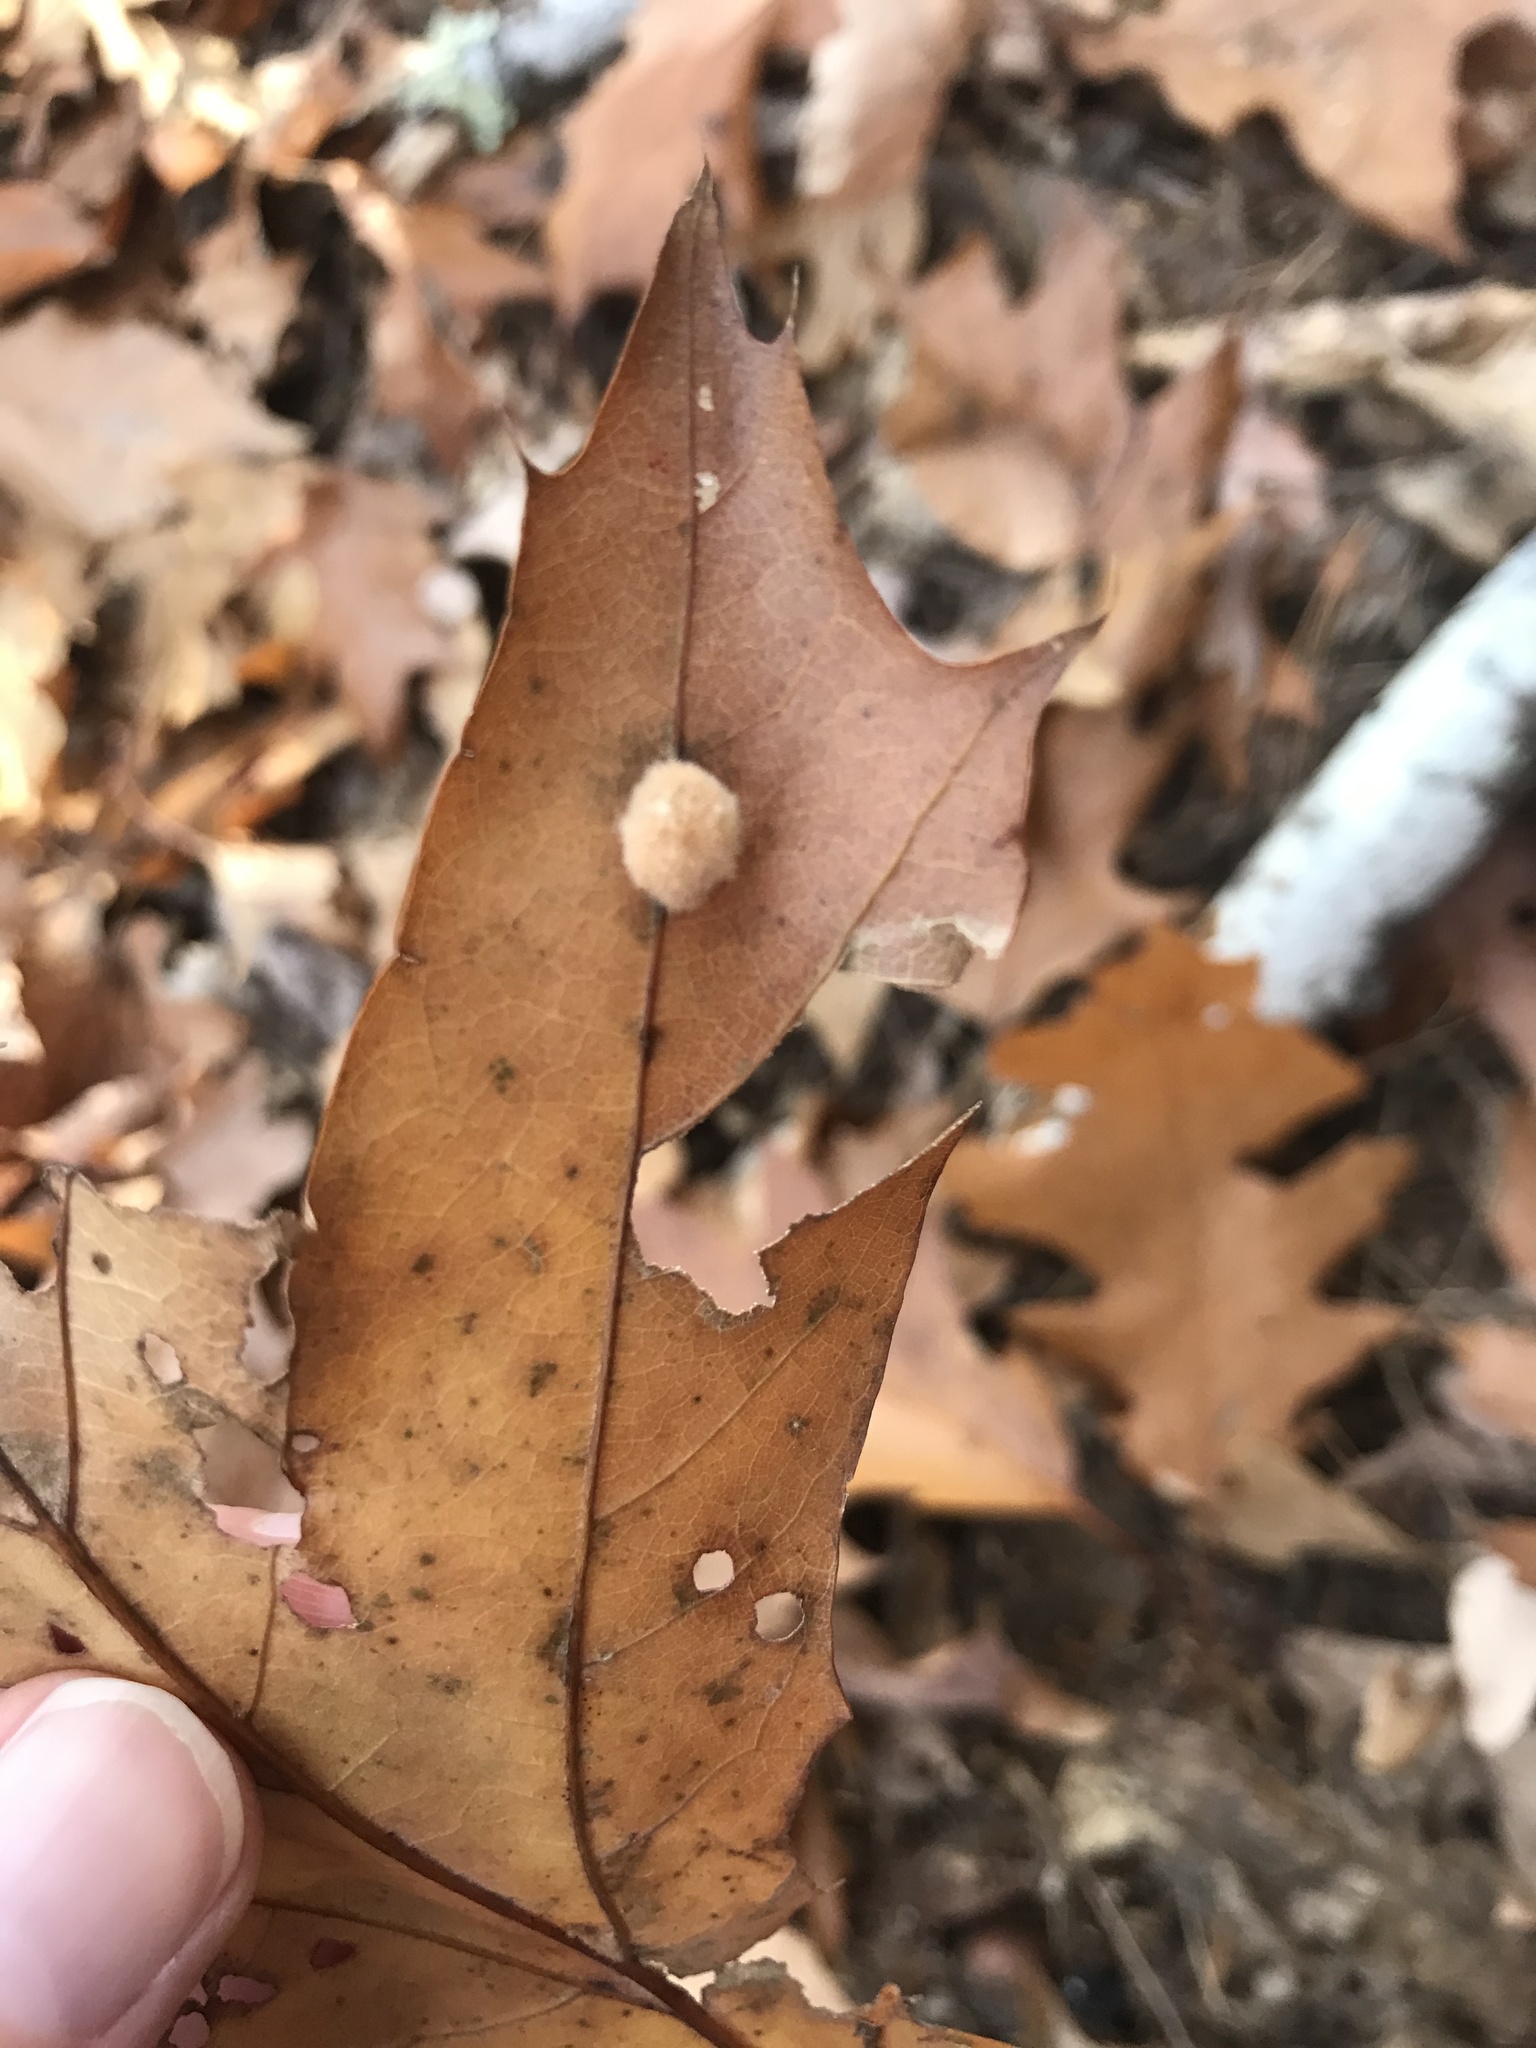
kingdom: Animalia
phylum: Arthropoda
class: Insecta
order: Hymenoptera
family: Cynipidae
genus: Callirhytis
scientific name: Callirhytis
